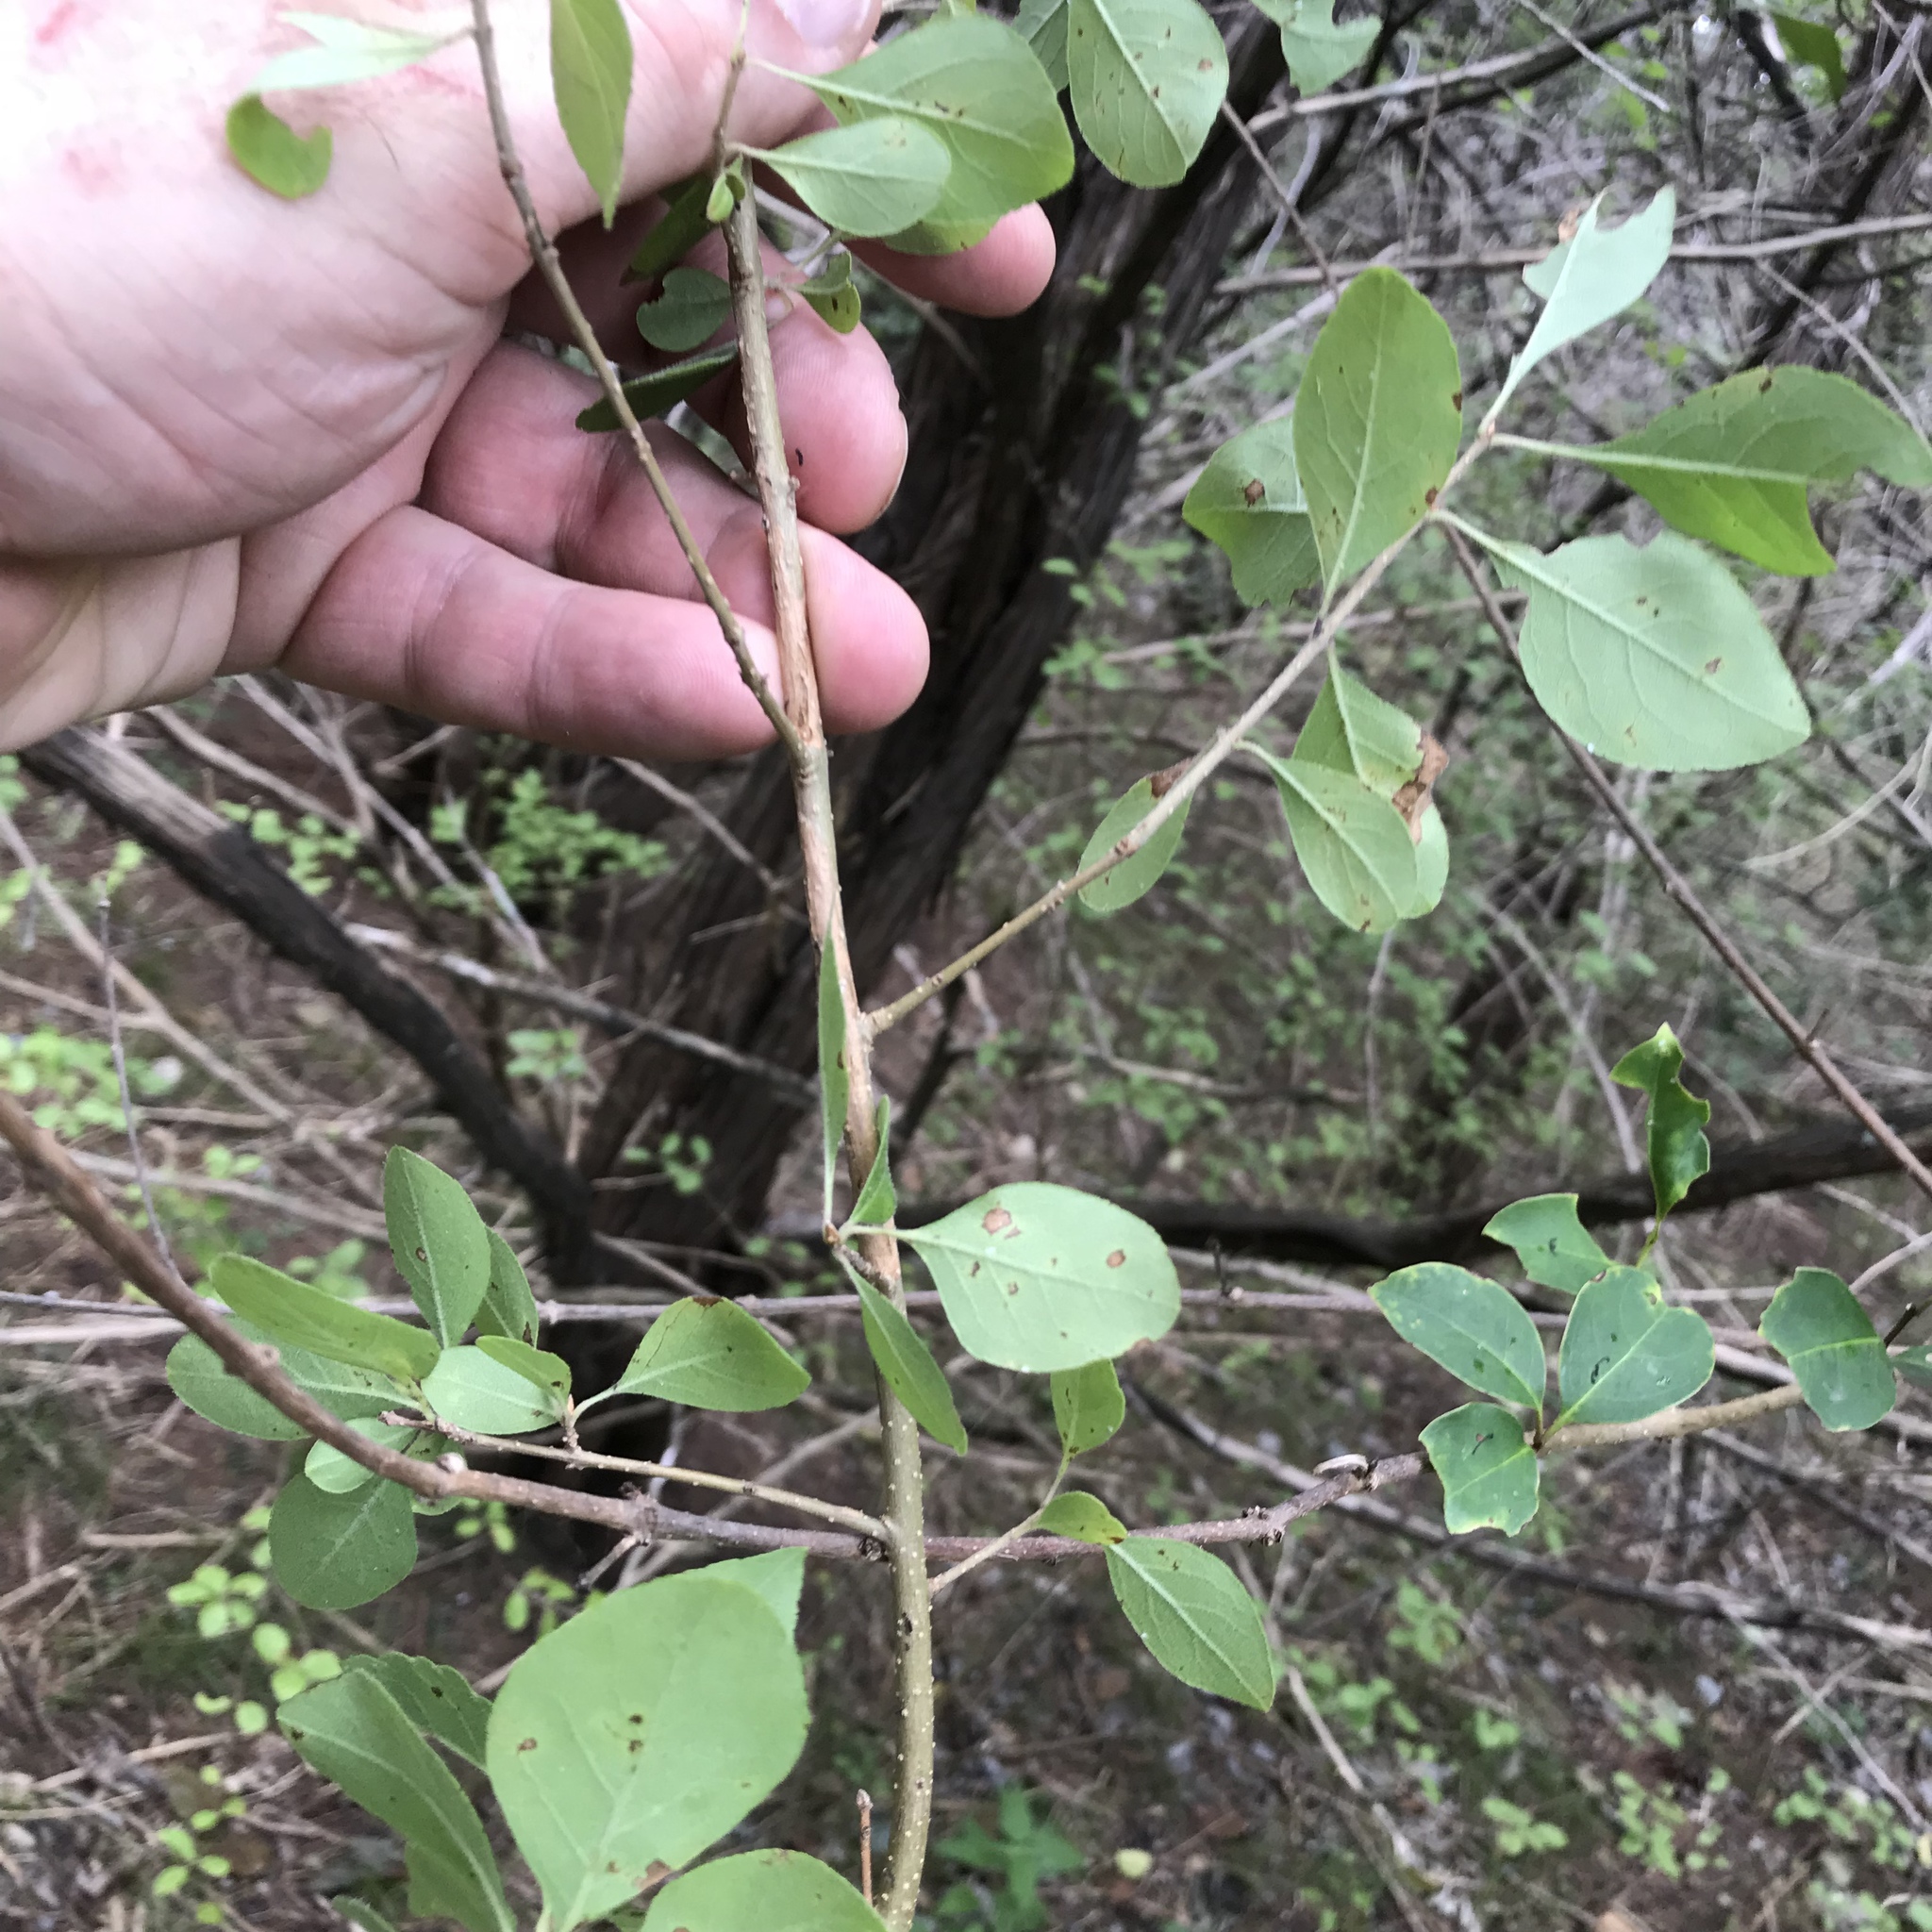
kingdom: Plantae
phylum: Tracheophyta
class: Magnoliopsida
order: Lamiales
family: Oleaceae
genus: Forestiera
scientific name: Forestiera pubescens
